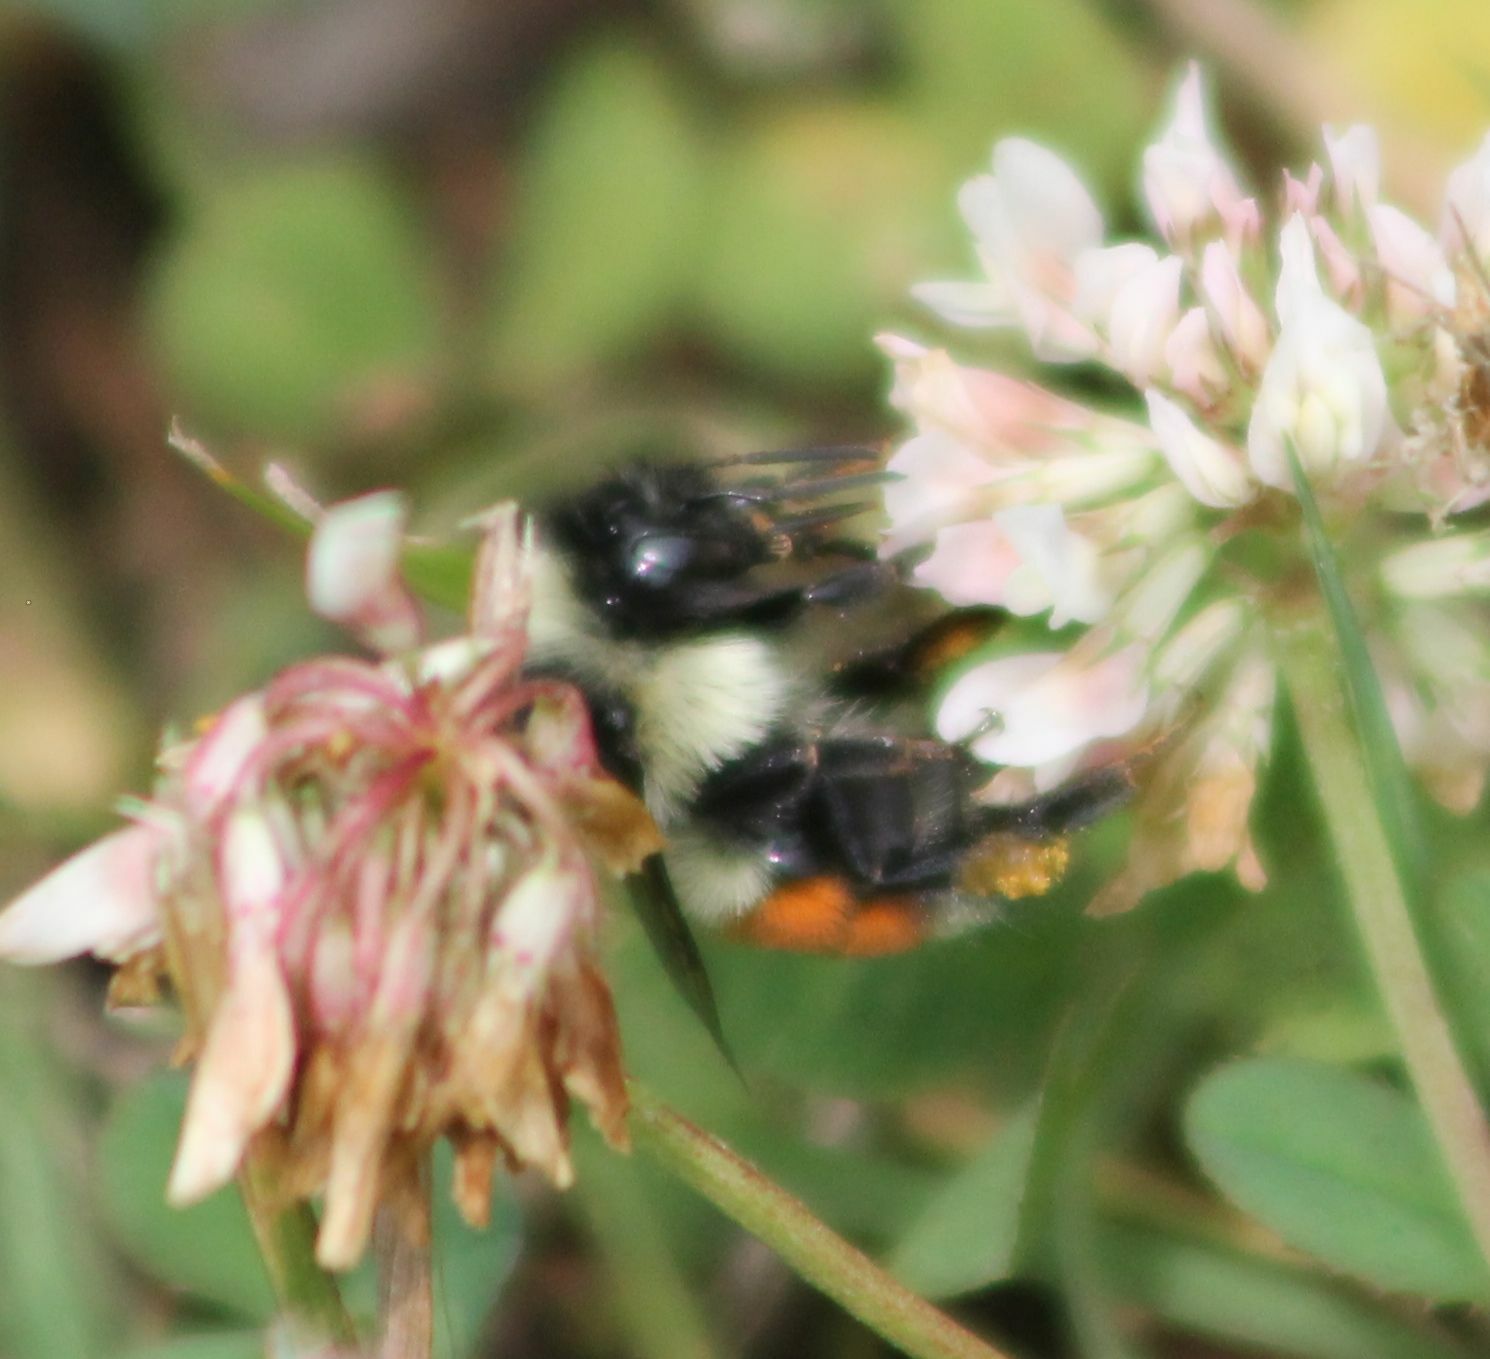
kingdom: Animalia
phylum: Arthropoda
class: Insecta
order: Hymenoptera
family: Apidae
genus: Bombus
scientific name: Bombus ternarius
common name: Tri-colored bumble bee
